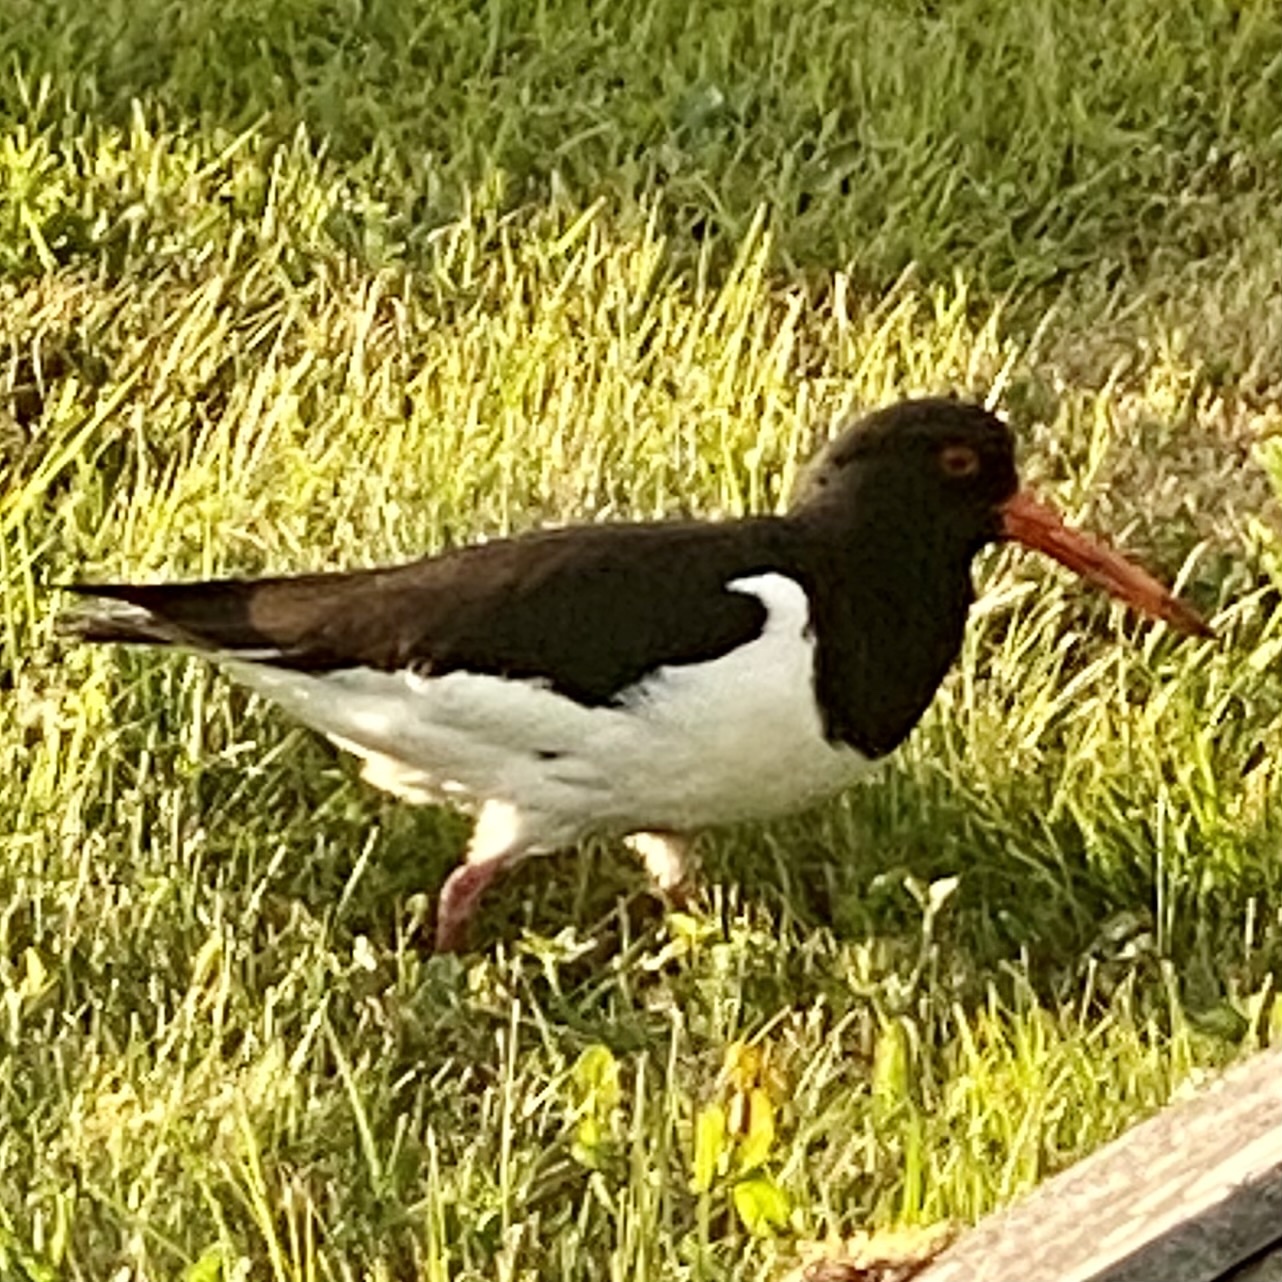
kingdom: Animalia
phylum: Chordata
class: Aves
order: Charadriiformes
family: Haematopodidae
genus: Haematopus
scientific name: Haematopus ostralegus
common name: Eurasian oystercatcher
